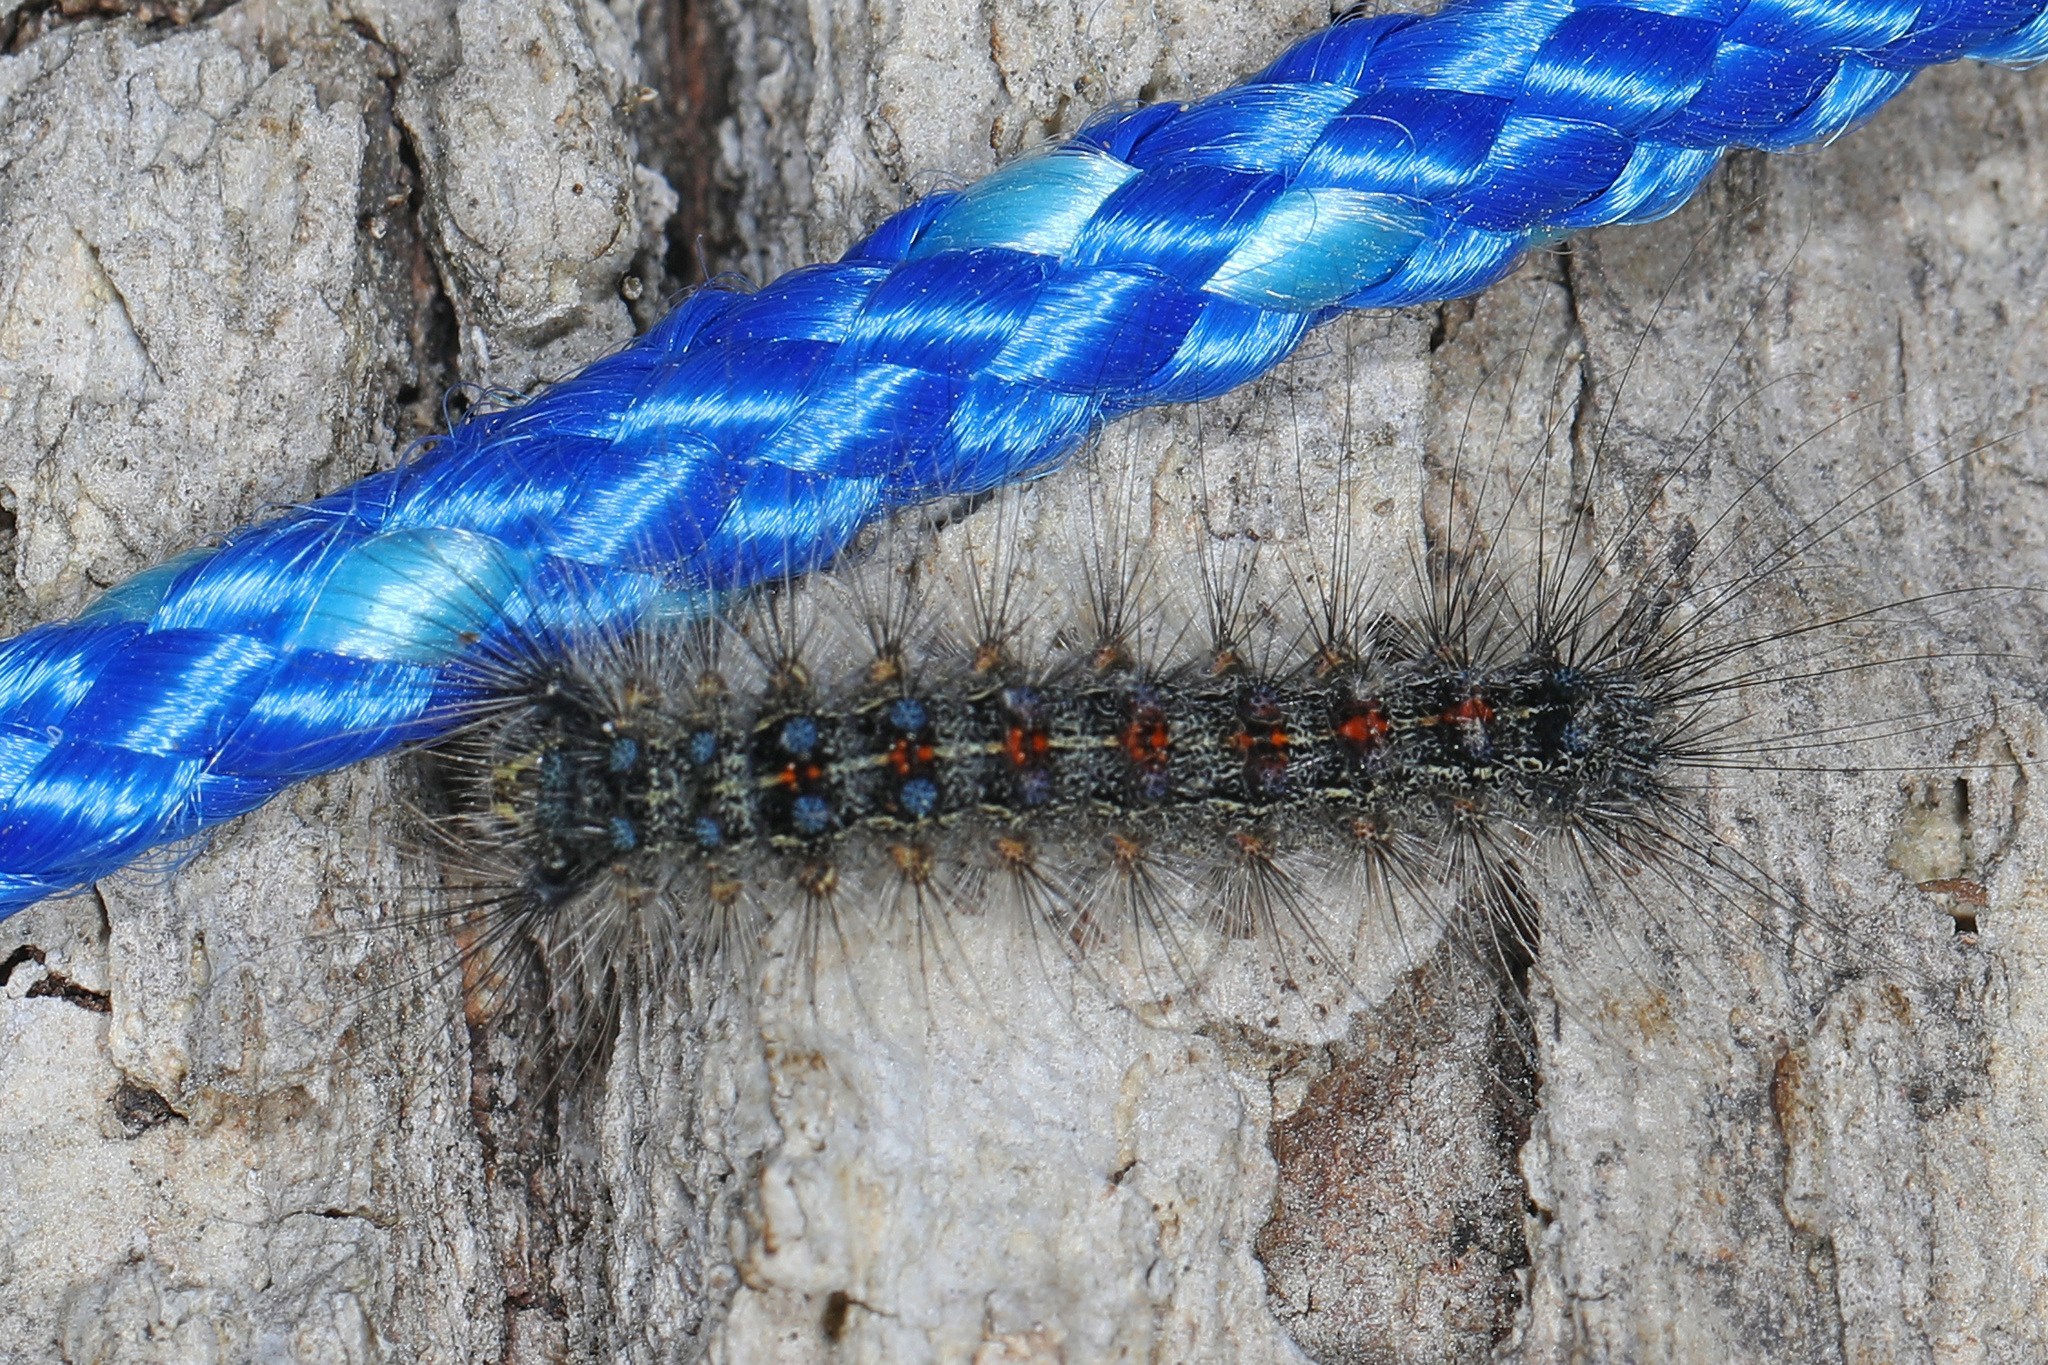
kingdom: Animalia
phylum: Arthropoda
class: Insecta
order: Lepidoptera
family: Erebidae
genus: Lymantria
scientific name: Lymantria dispar
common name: Gypsy moth
